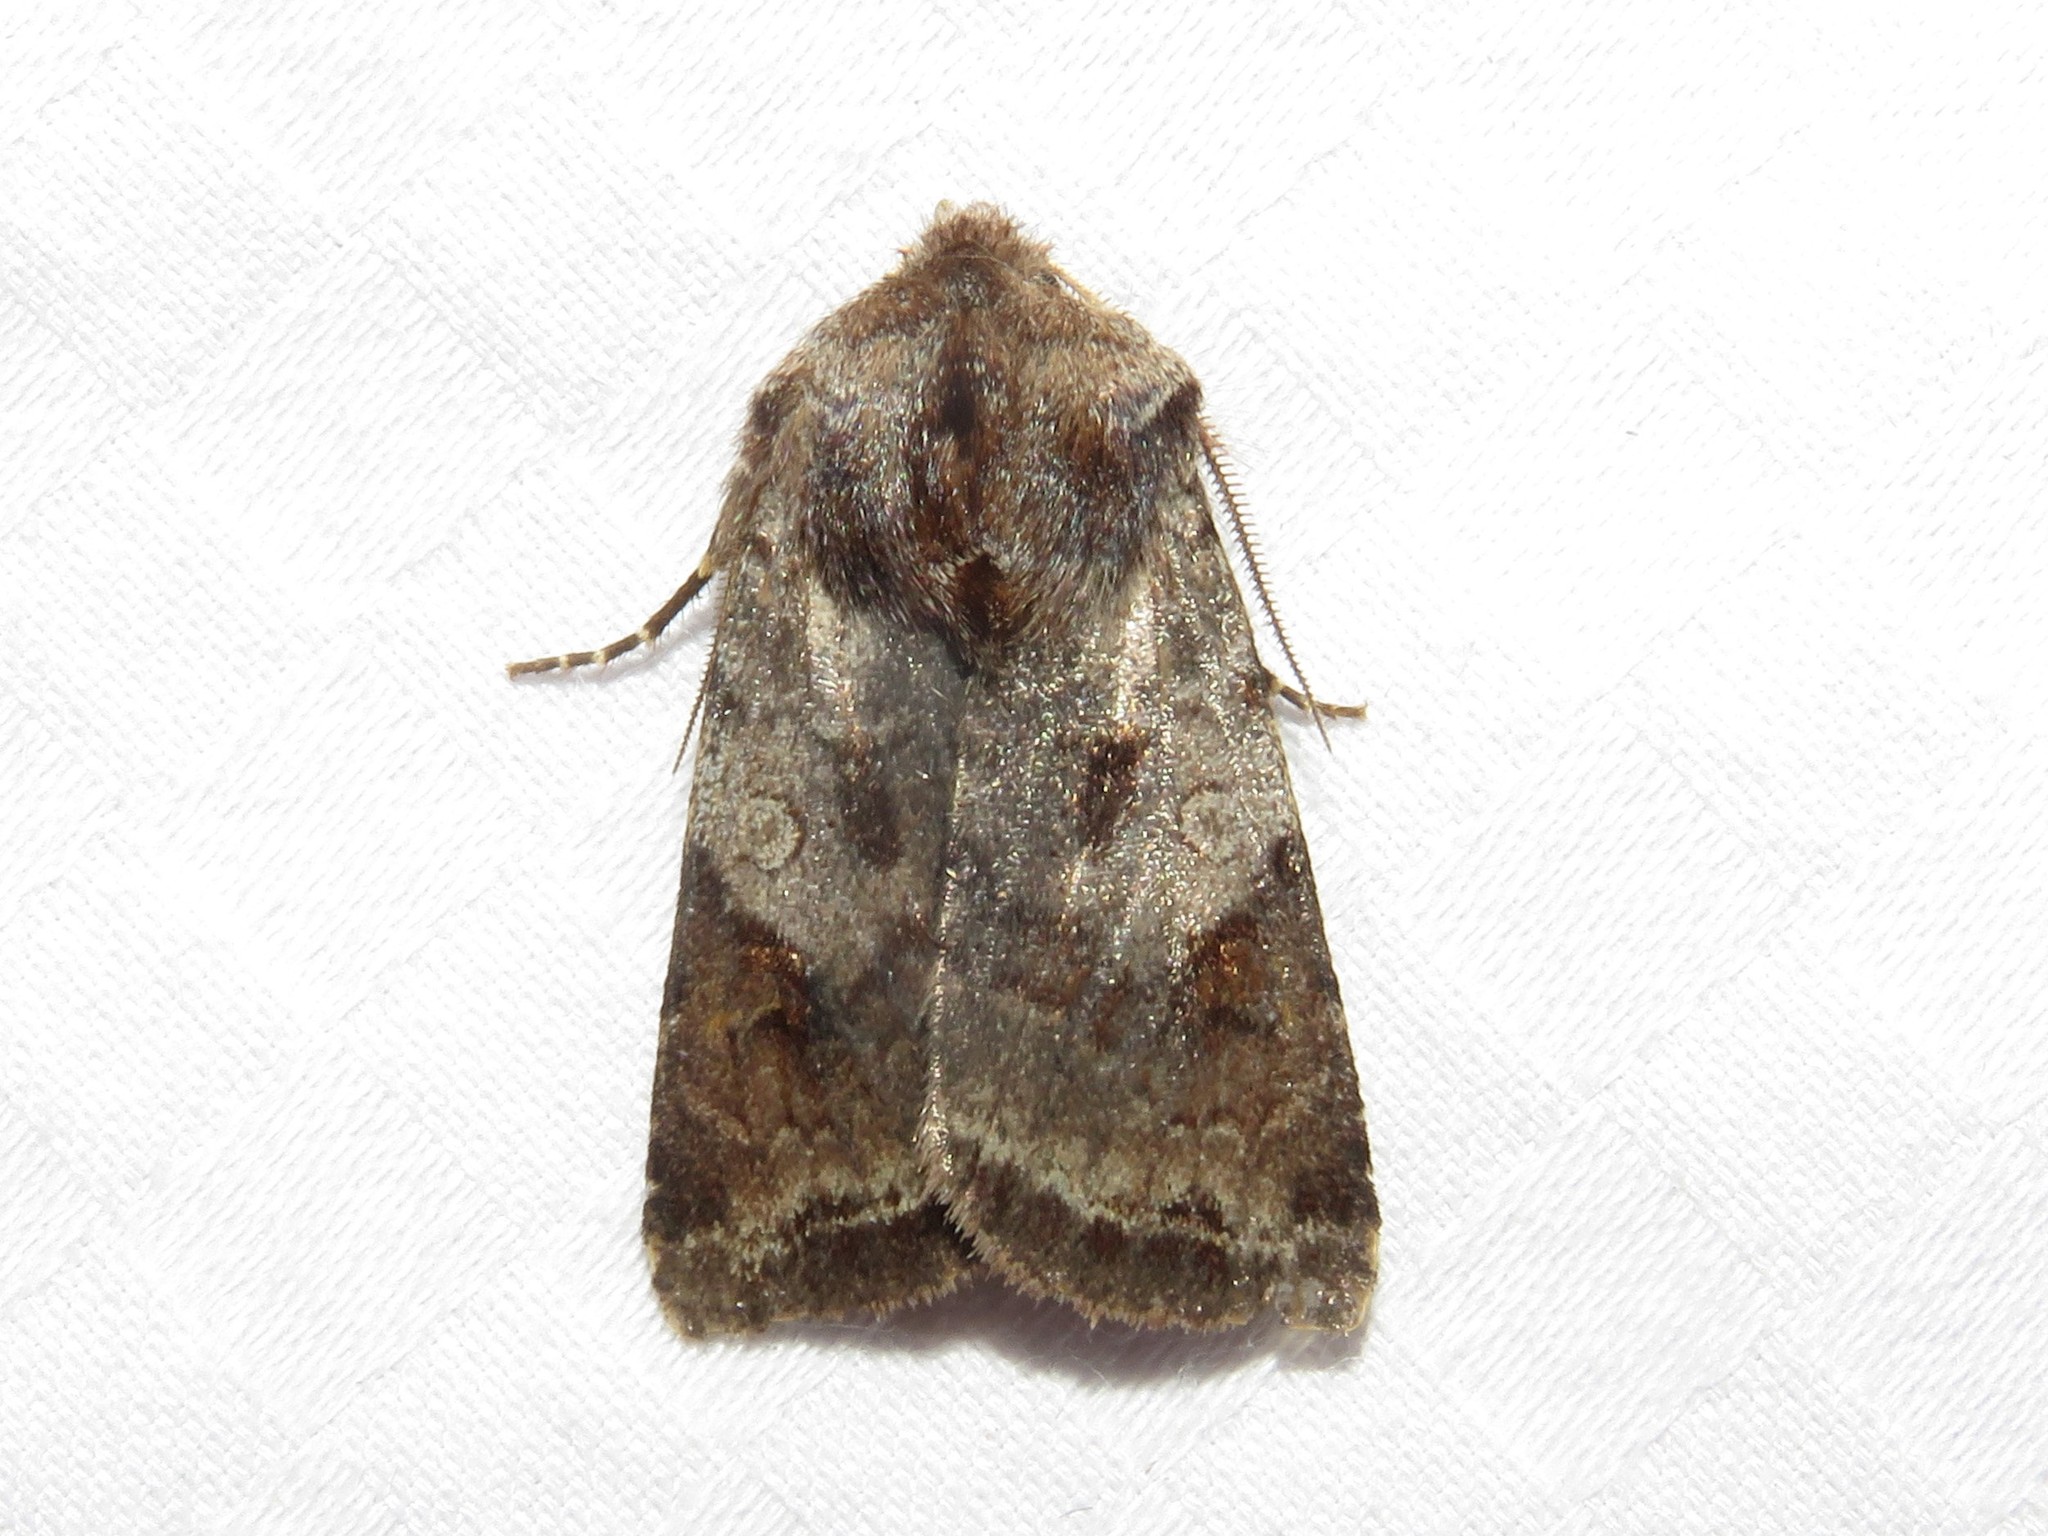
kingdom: Animalia
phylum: Arthropoda
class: Insecta
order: Lepidoptera
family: Noctuidae
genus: Cerastis
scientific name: Cerastis salicarum
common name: Willow dart
